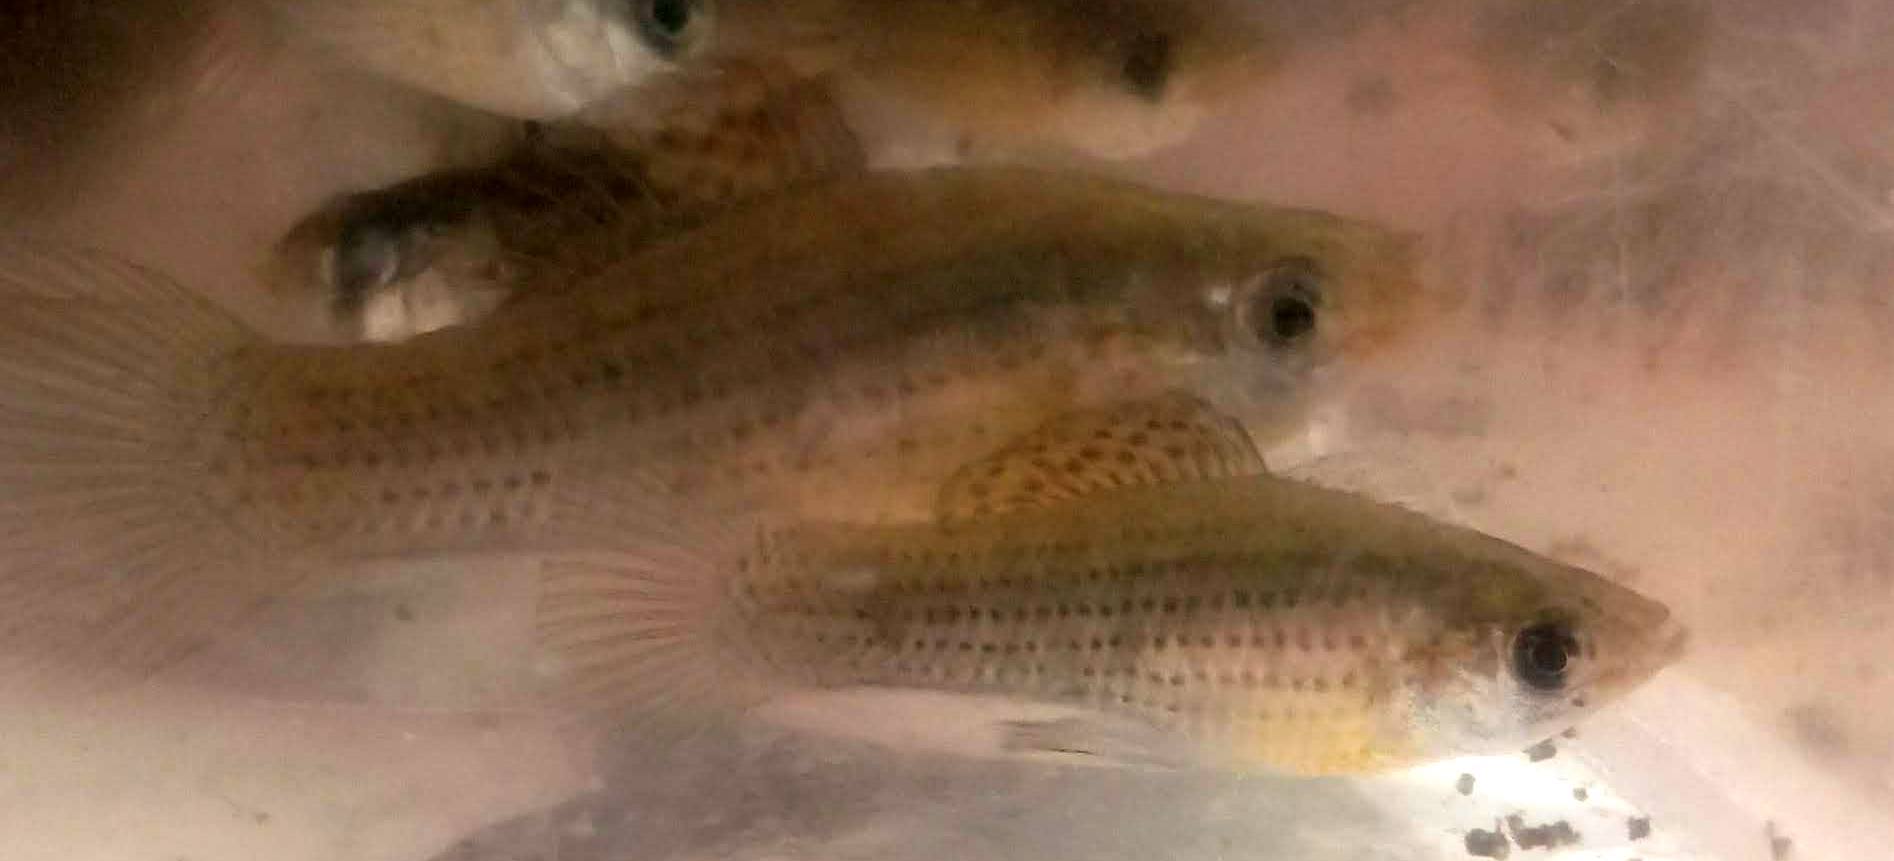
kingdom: Animalia
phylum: Chordata
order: Cyprinodontiformes
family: Poeciliidae
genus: Poecilia
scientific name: Poecilia latipinna
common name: Sailfin molly
